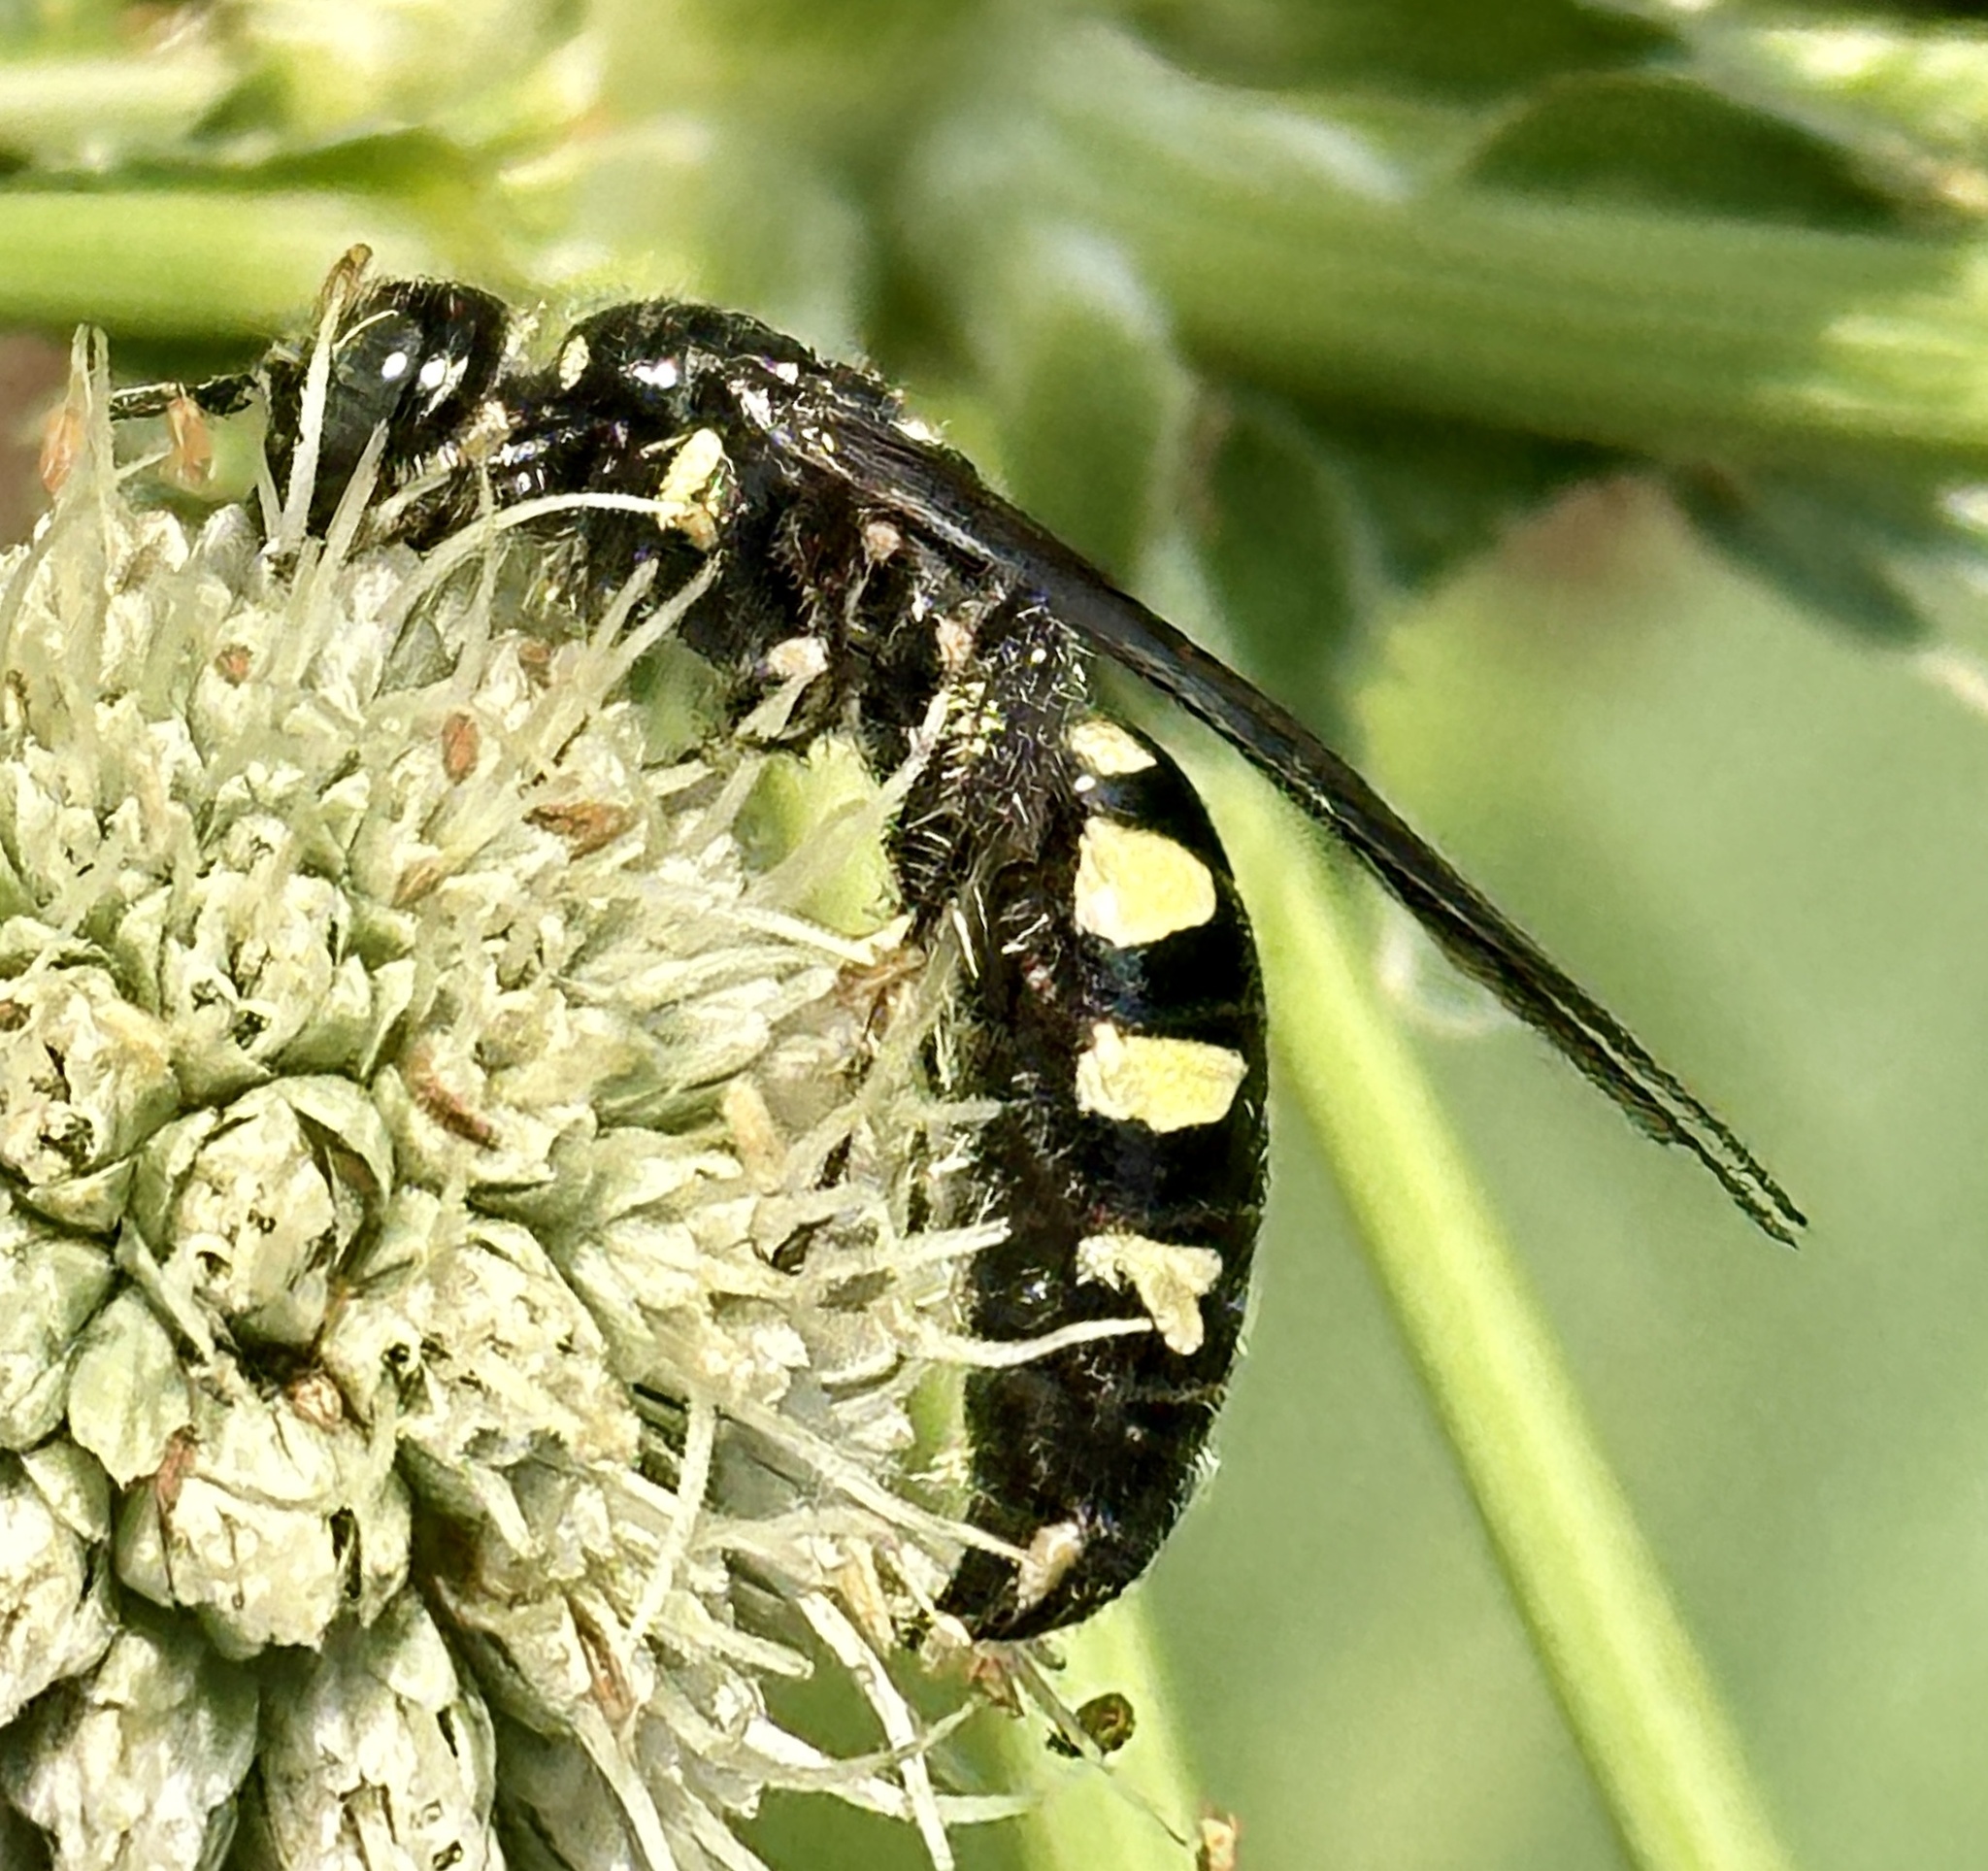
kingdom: Animalia
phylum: Arthropoda
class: Insecta
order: Hymenoptera
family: Tiphiidae
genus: Myzinum
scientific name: Myzinum obscurum
